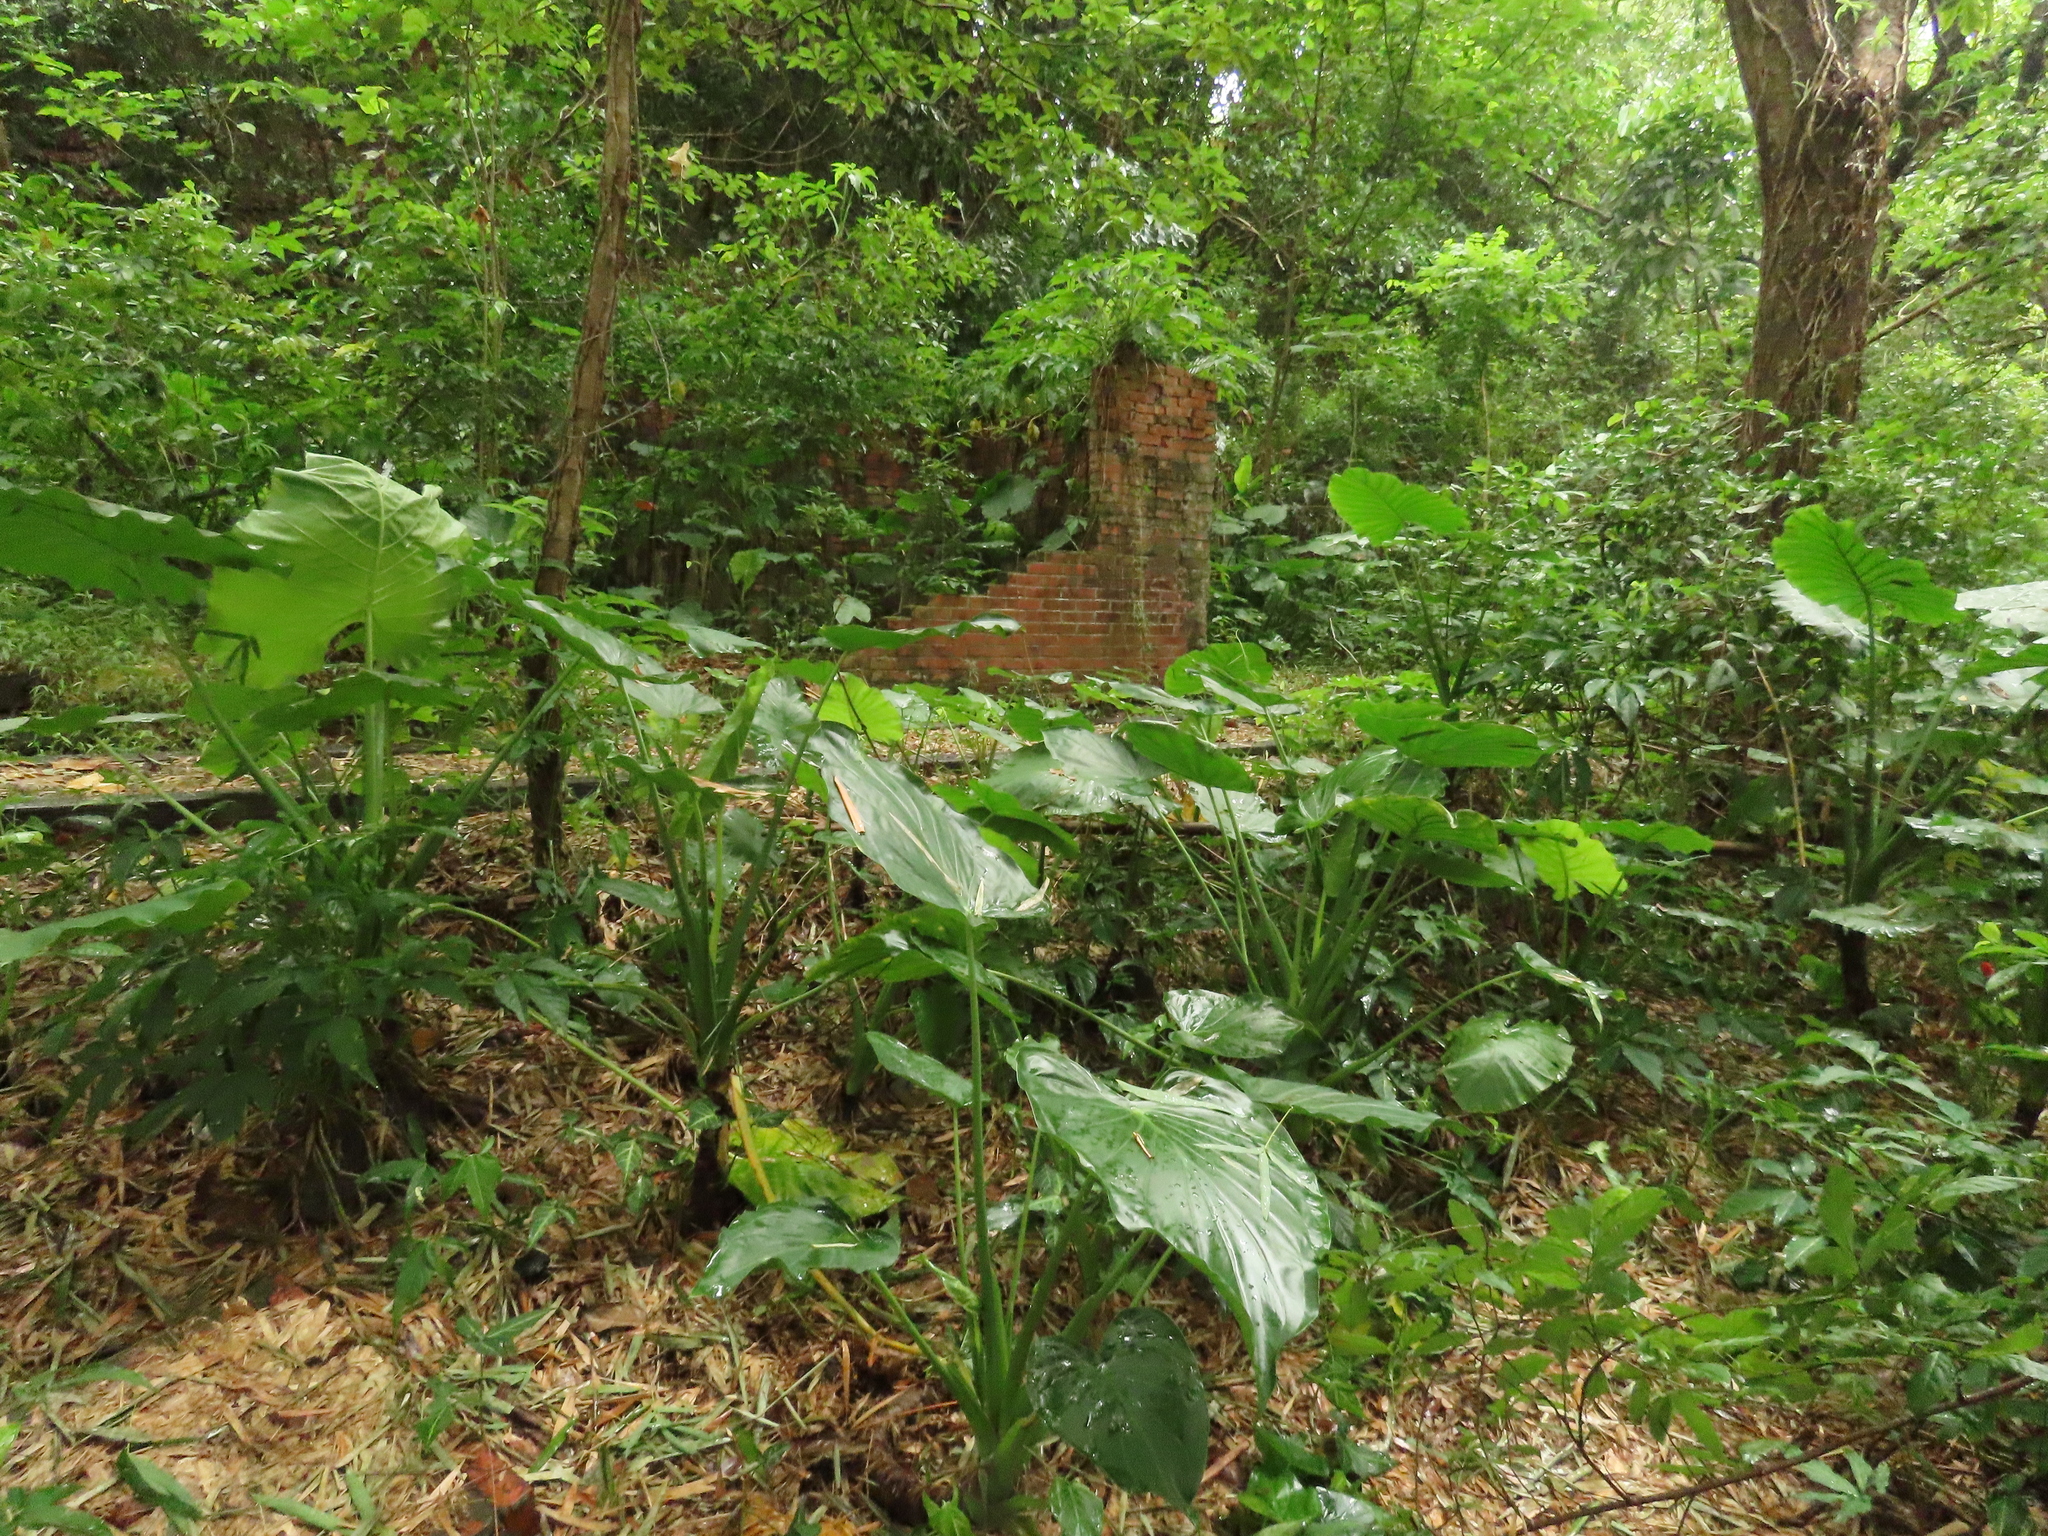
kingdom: Plantae
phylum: Tracheophyta
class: Liliopsida
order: Alismatales
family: Araceae
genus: Alocasia
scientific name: Alocasia cucullata
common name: Buddha's hand
